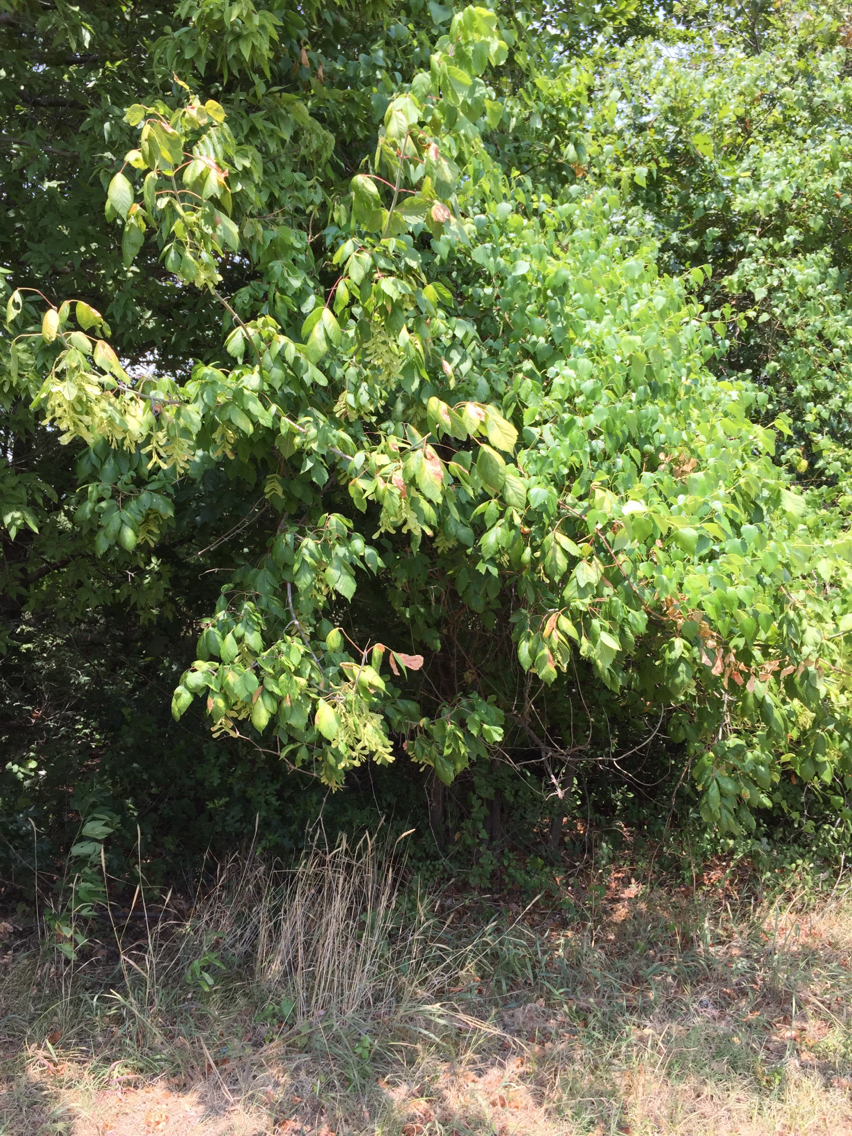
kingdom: Plantae
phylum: Tracheophyta
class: Magnoliopsida
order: Sapindales
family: Sapindaceae
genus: Acer
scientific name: Acer negundo
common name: Ashleaf maple
